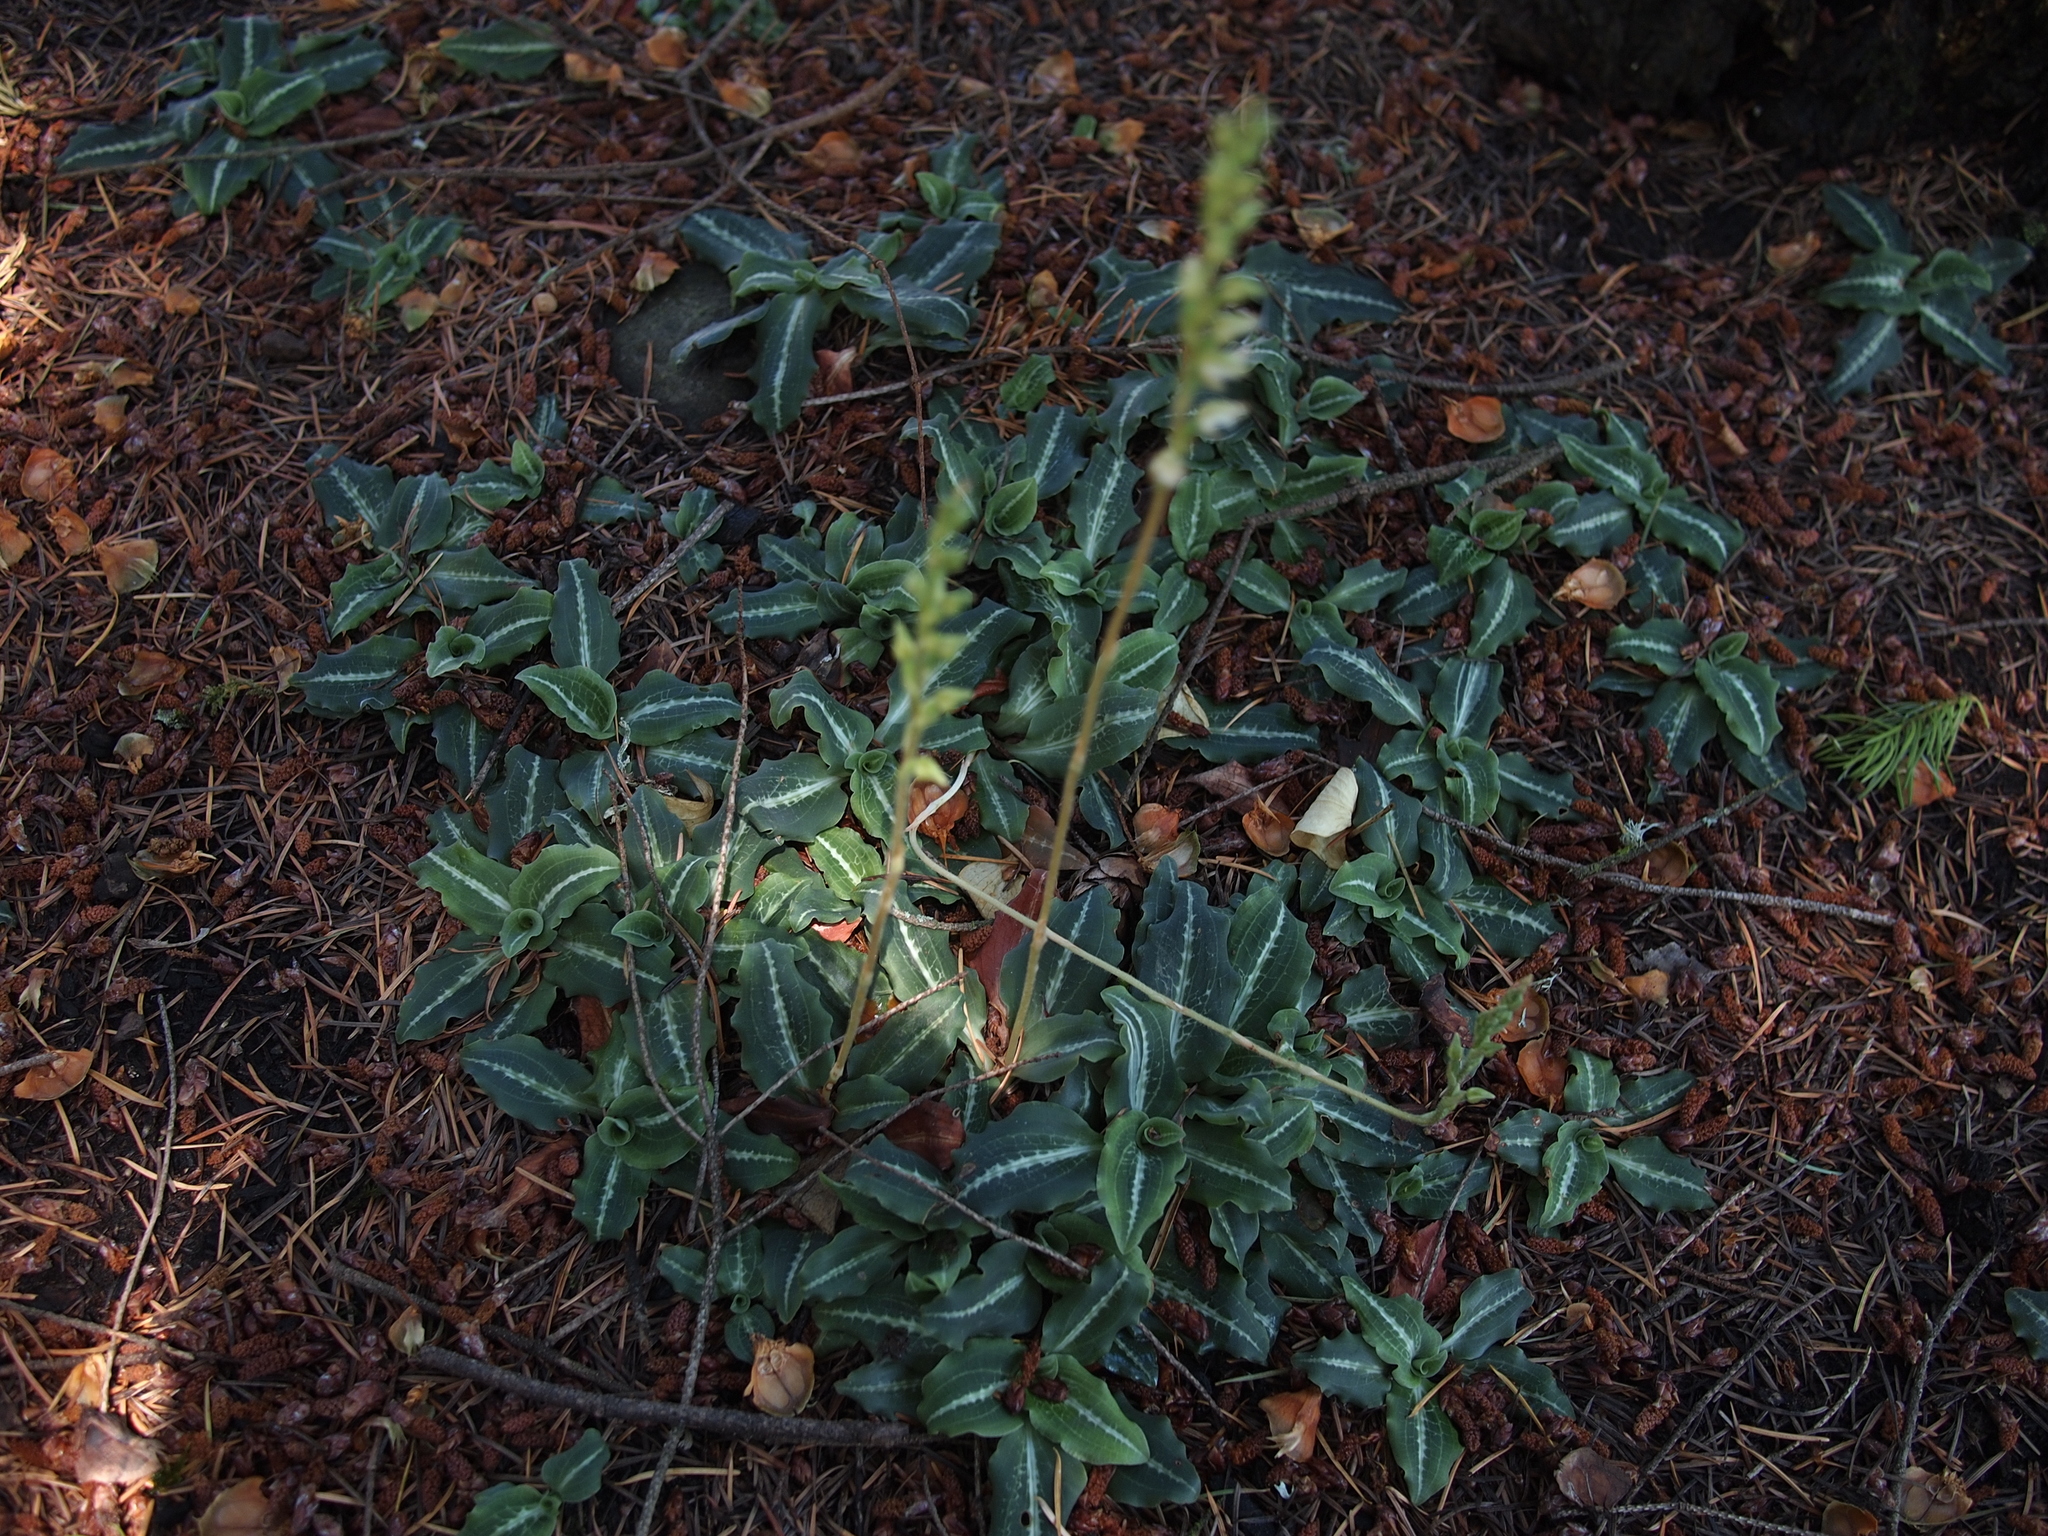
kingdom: Plantae
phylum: Tracheophyta
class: Liliopsida
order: Asparagales
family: Orchidaceae
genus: Goodyera
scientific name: Goodyera oblongifolia
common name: Giant rattlesnake-plantain
